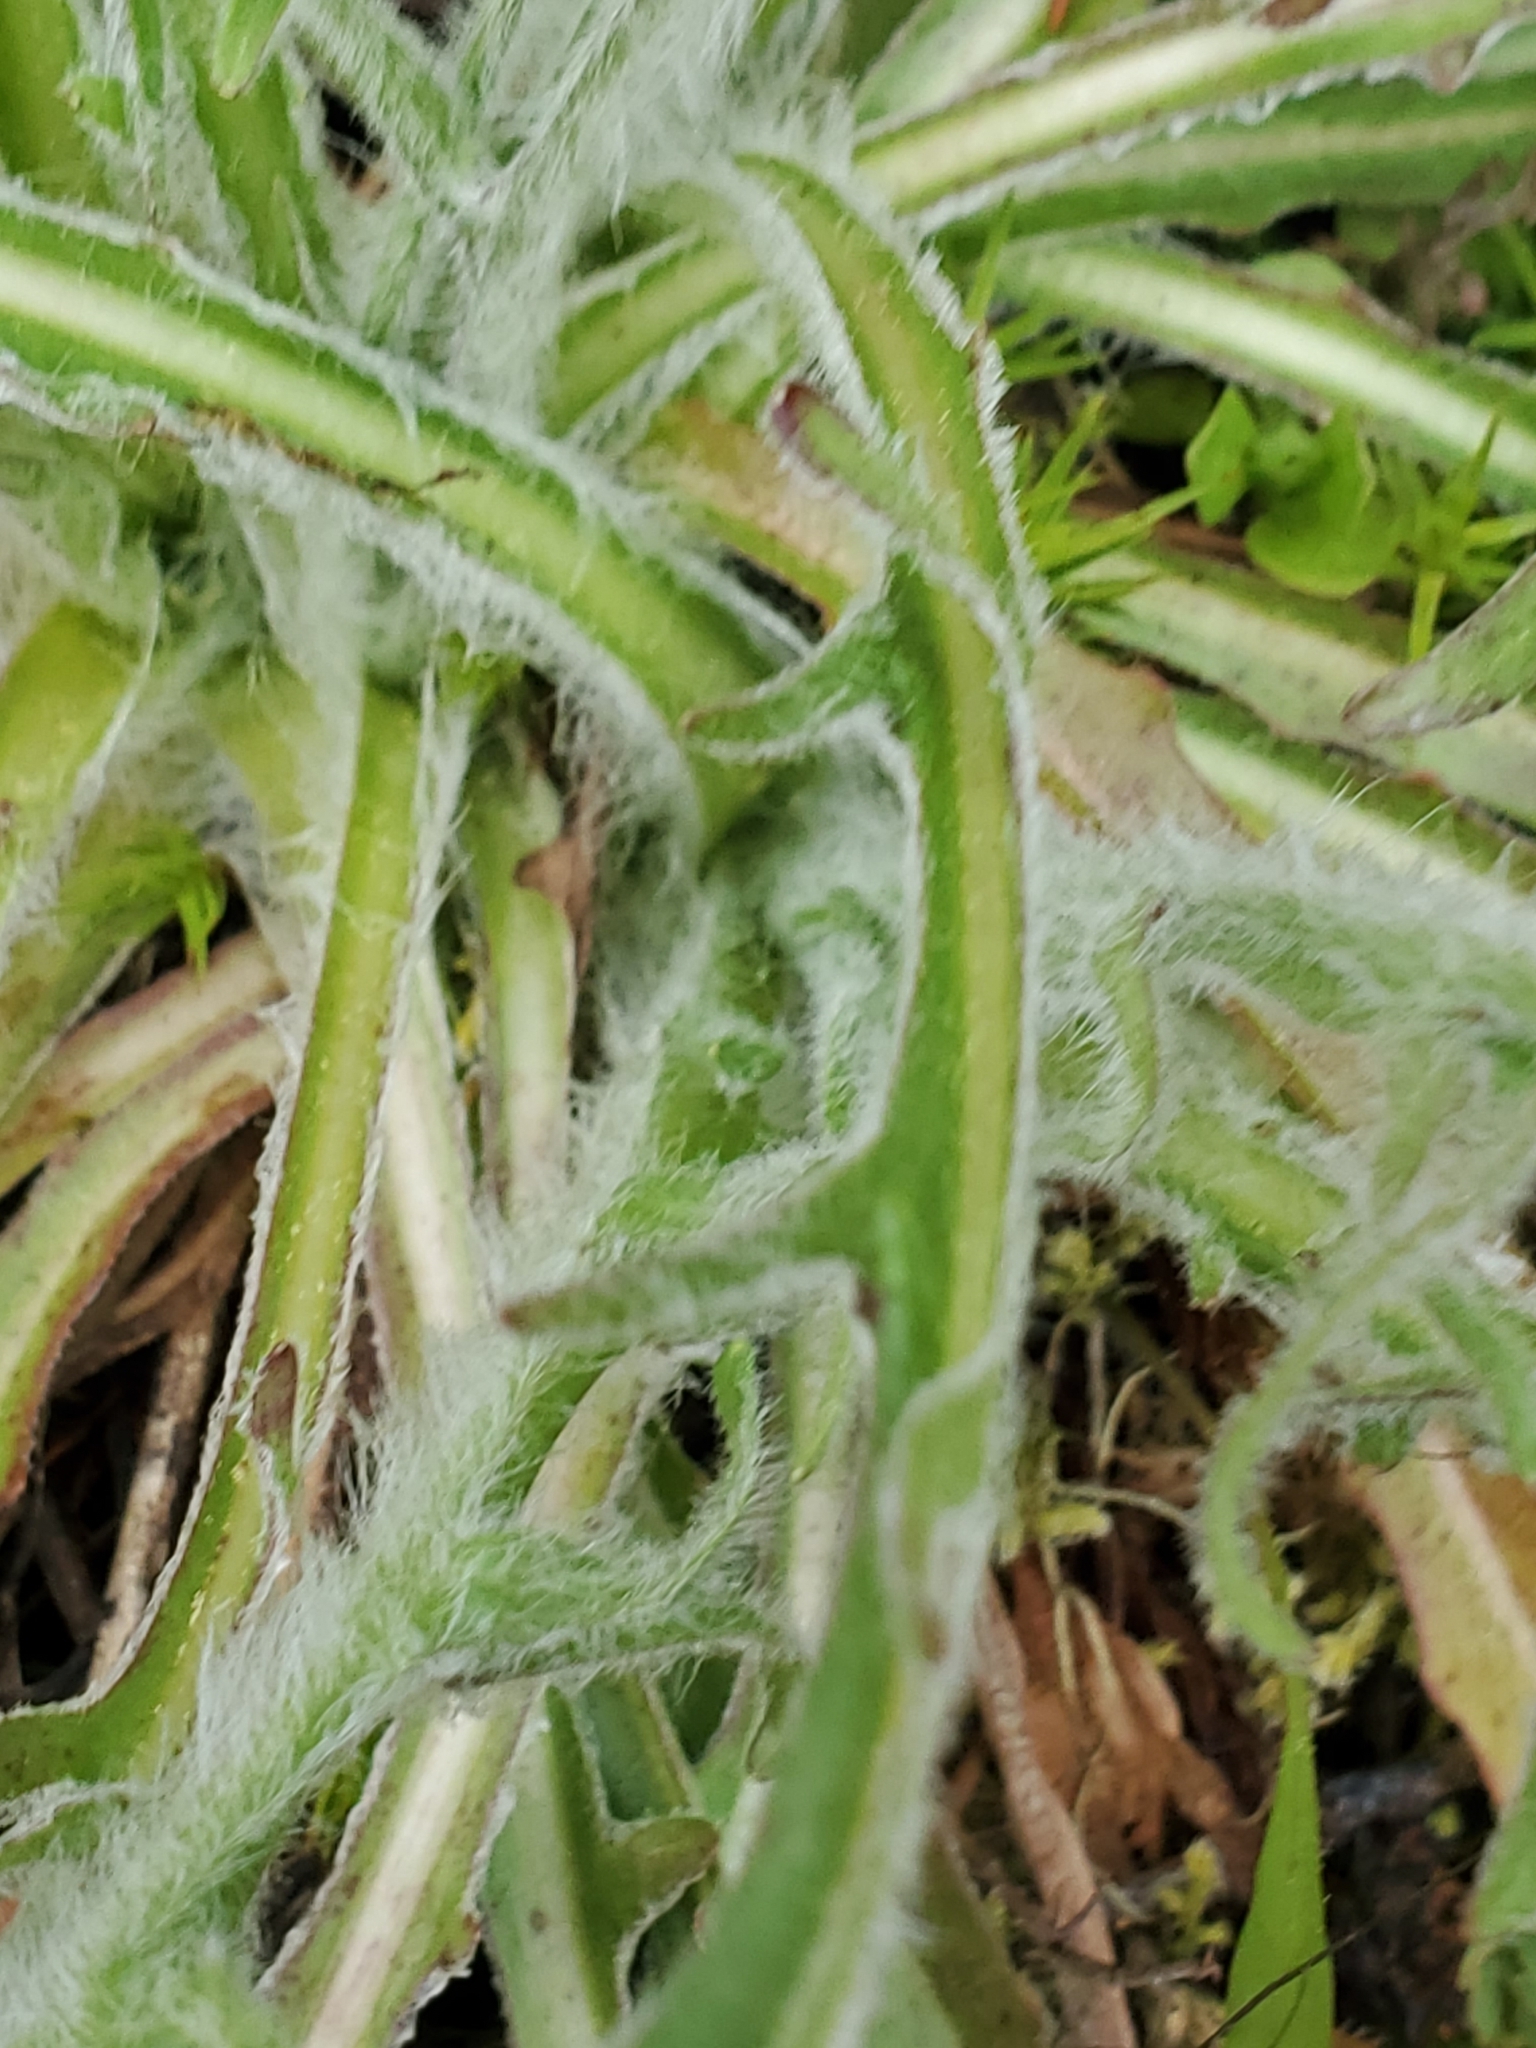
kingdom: Plantae
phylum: Tracheophyta
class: Magnoliopsida
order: Asterales
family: Asteraceae
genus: Agoseris
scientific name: Agoseris grandiflora
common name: Grassland agoseris
